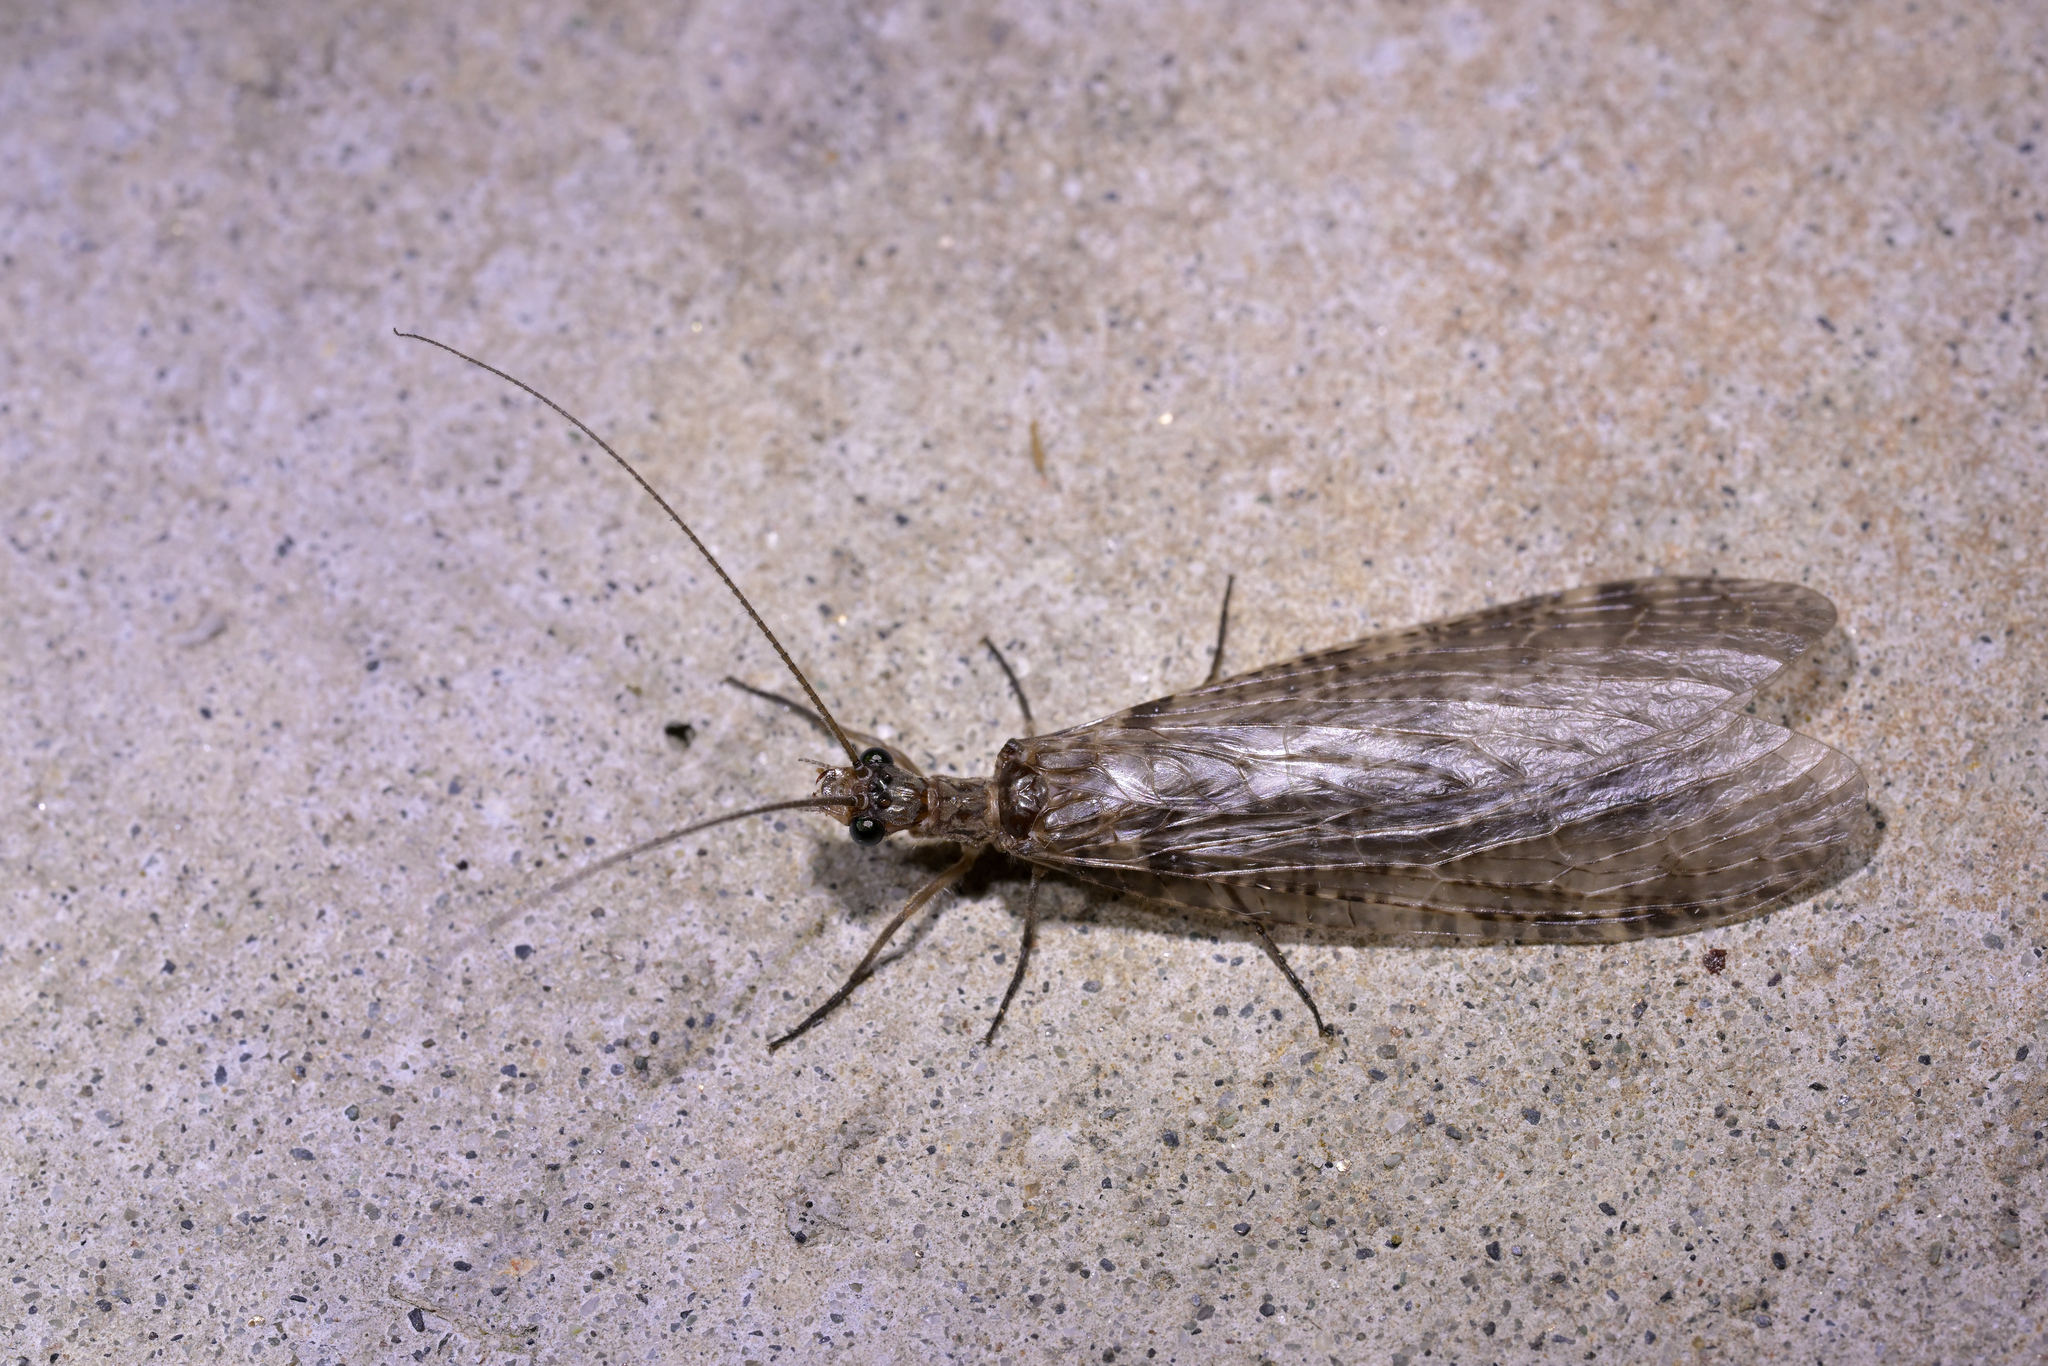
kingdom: Animalia
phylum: Arthropoda
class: Insecta
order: Megaloptera
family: Corydalidae
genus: Archichauliodes
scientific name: Archichauliodes diversus
